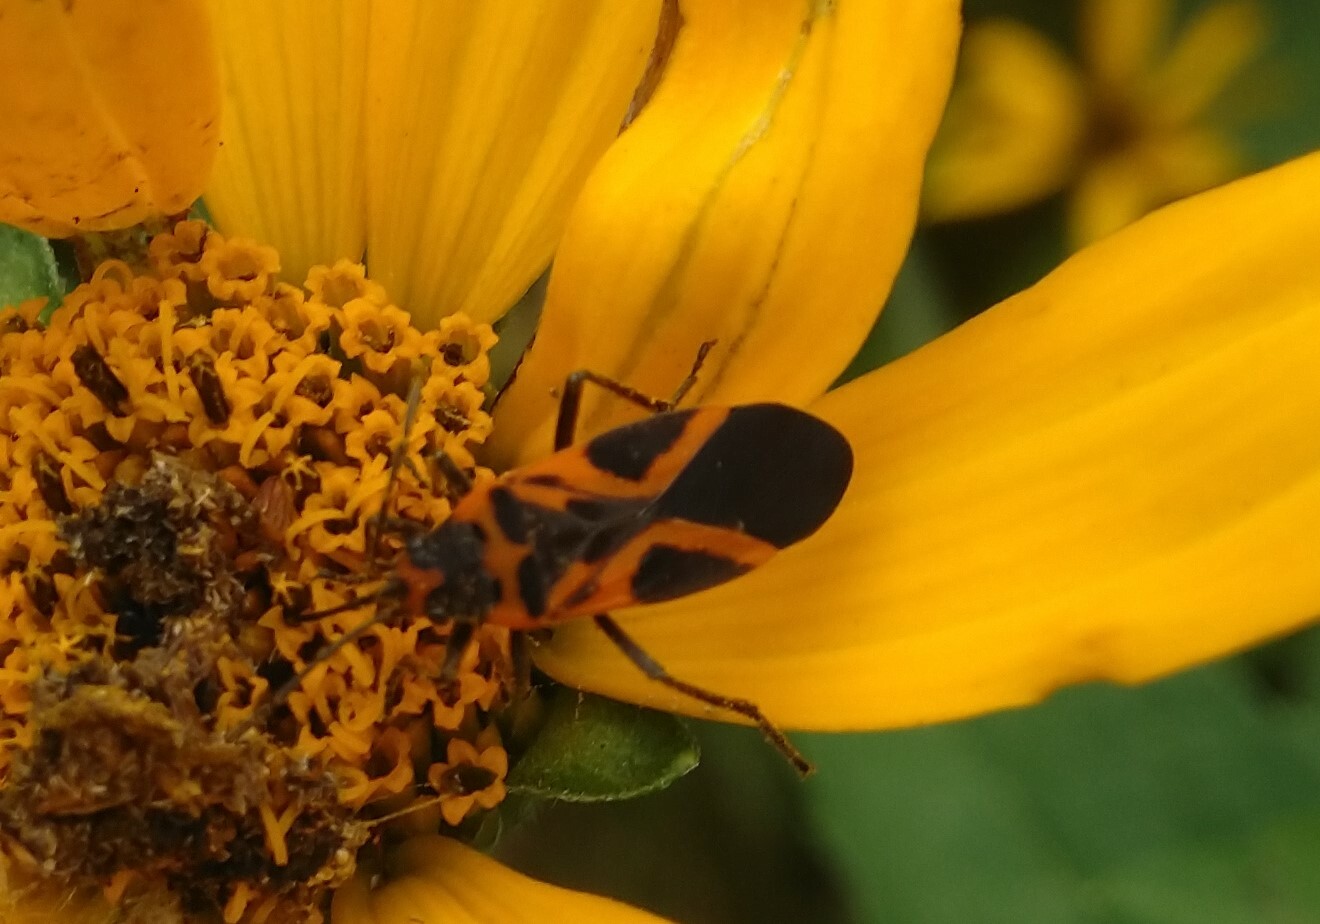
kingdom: Animalia
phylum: Arthropoda
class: Insecta
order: Hemiptera
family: Lygaeidae
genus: Lygaeus
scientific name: Lygaeus turcicus
